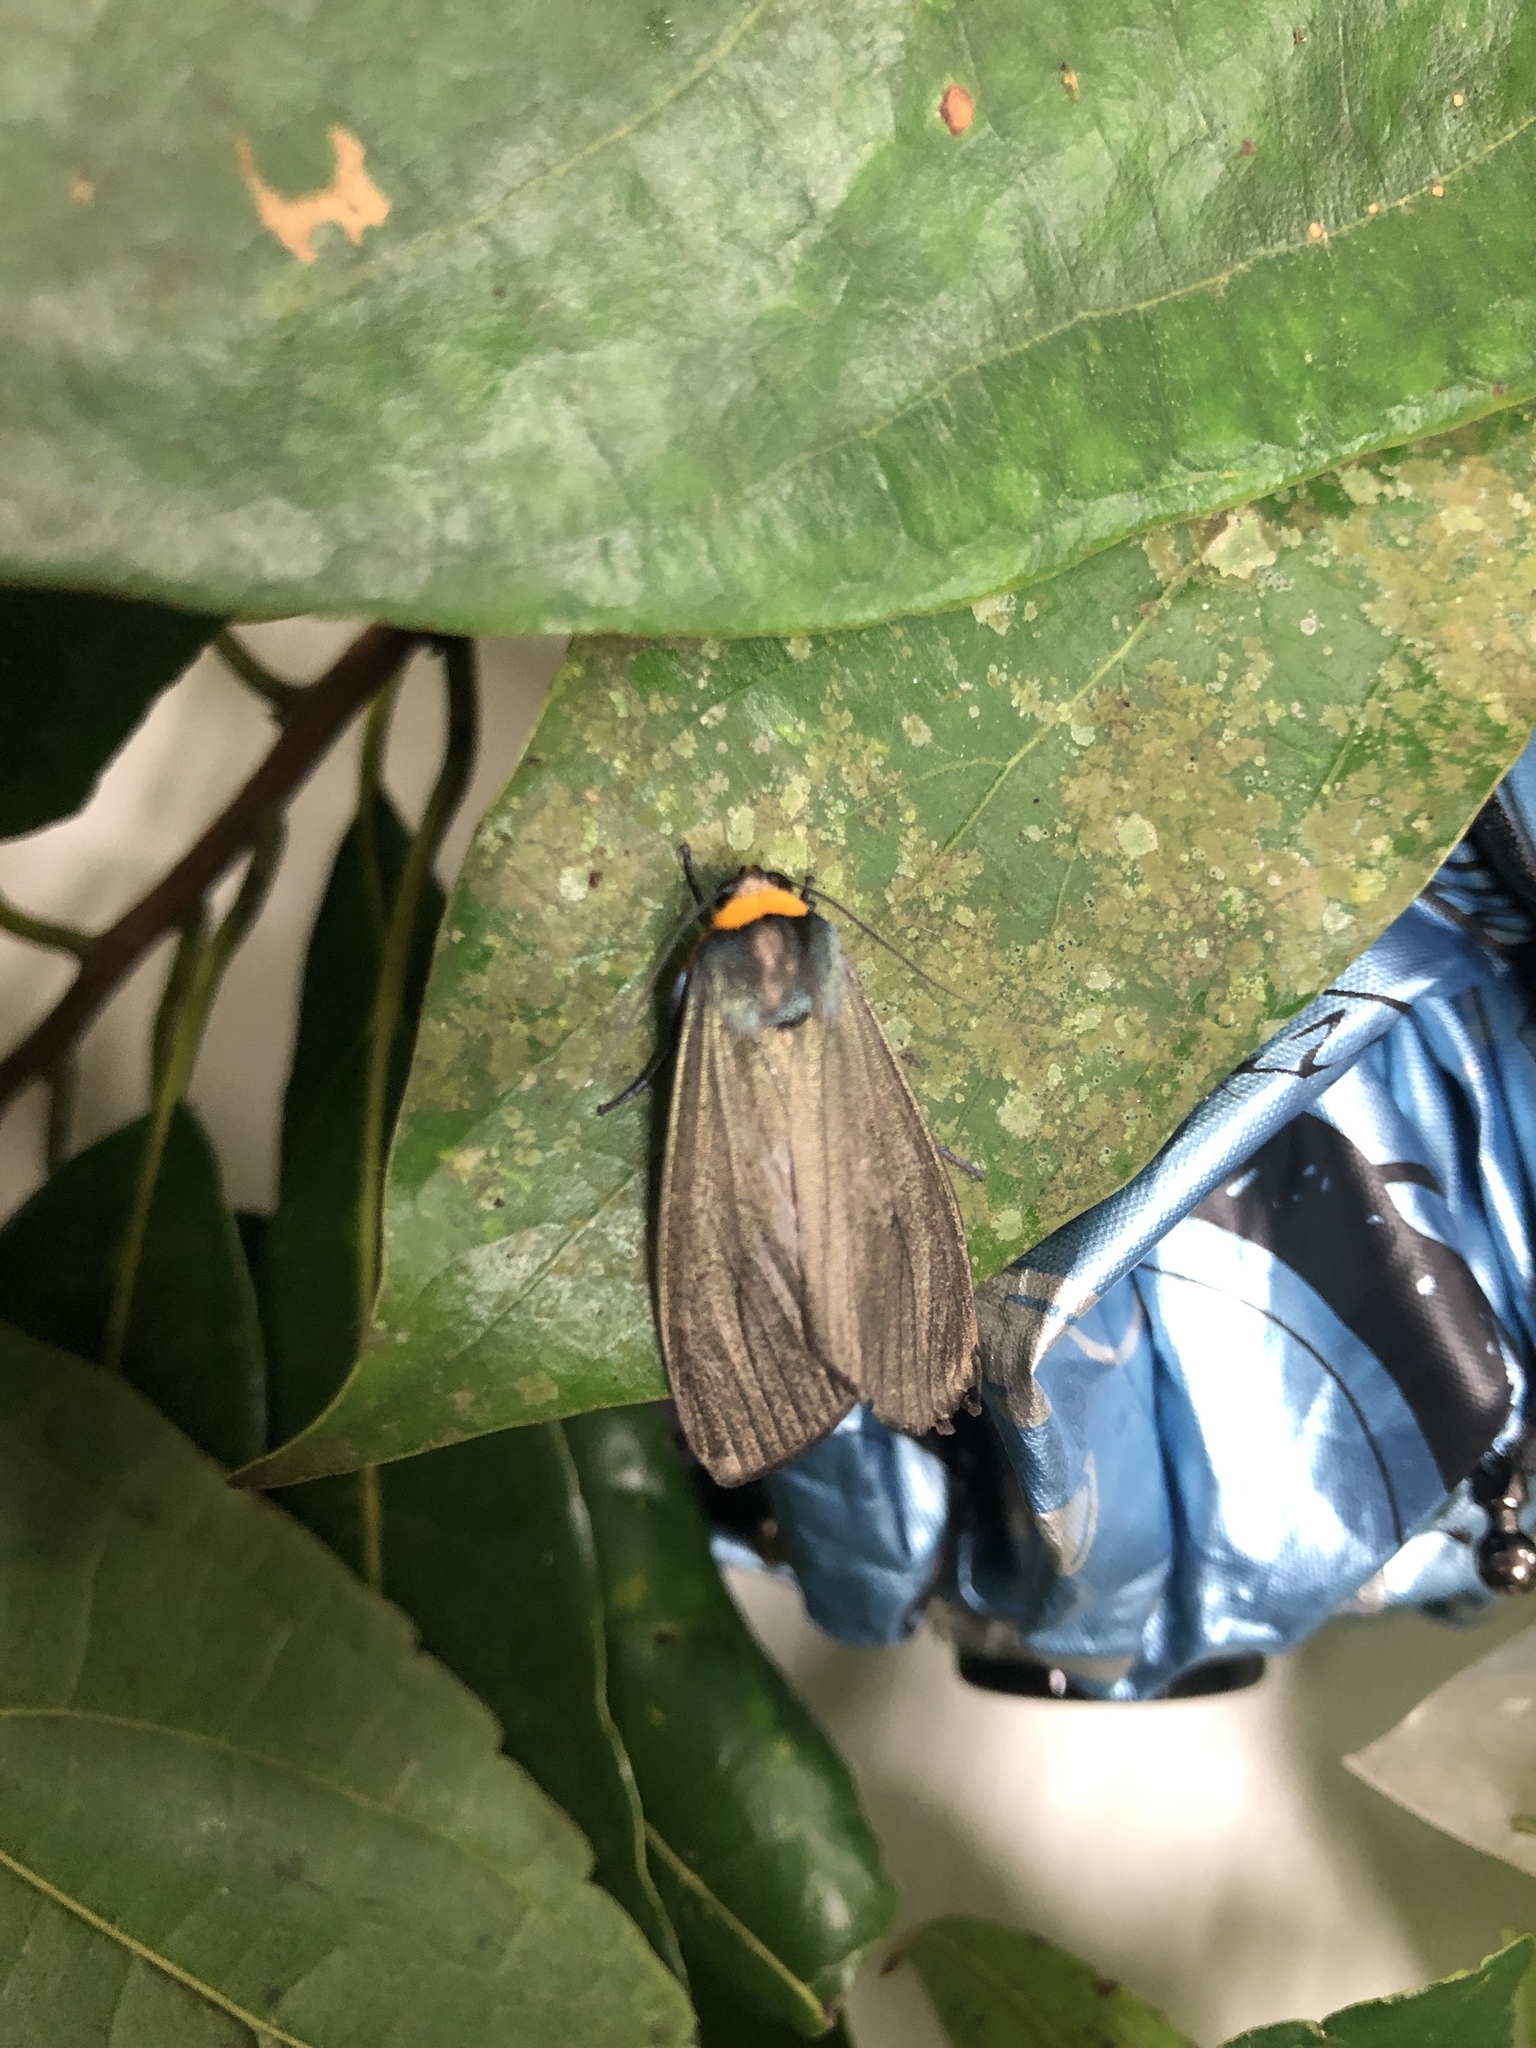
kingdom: Animalia
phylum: Arthropoda
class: Insecta
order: Lepidoptera
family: Erebidae
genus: Macrobrochis
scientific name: Macrobrochis staudingeri
